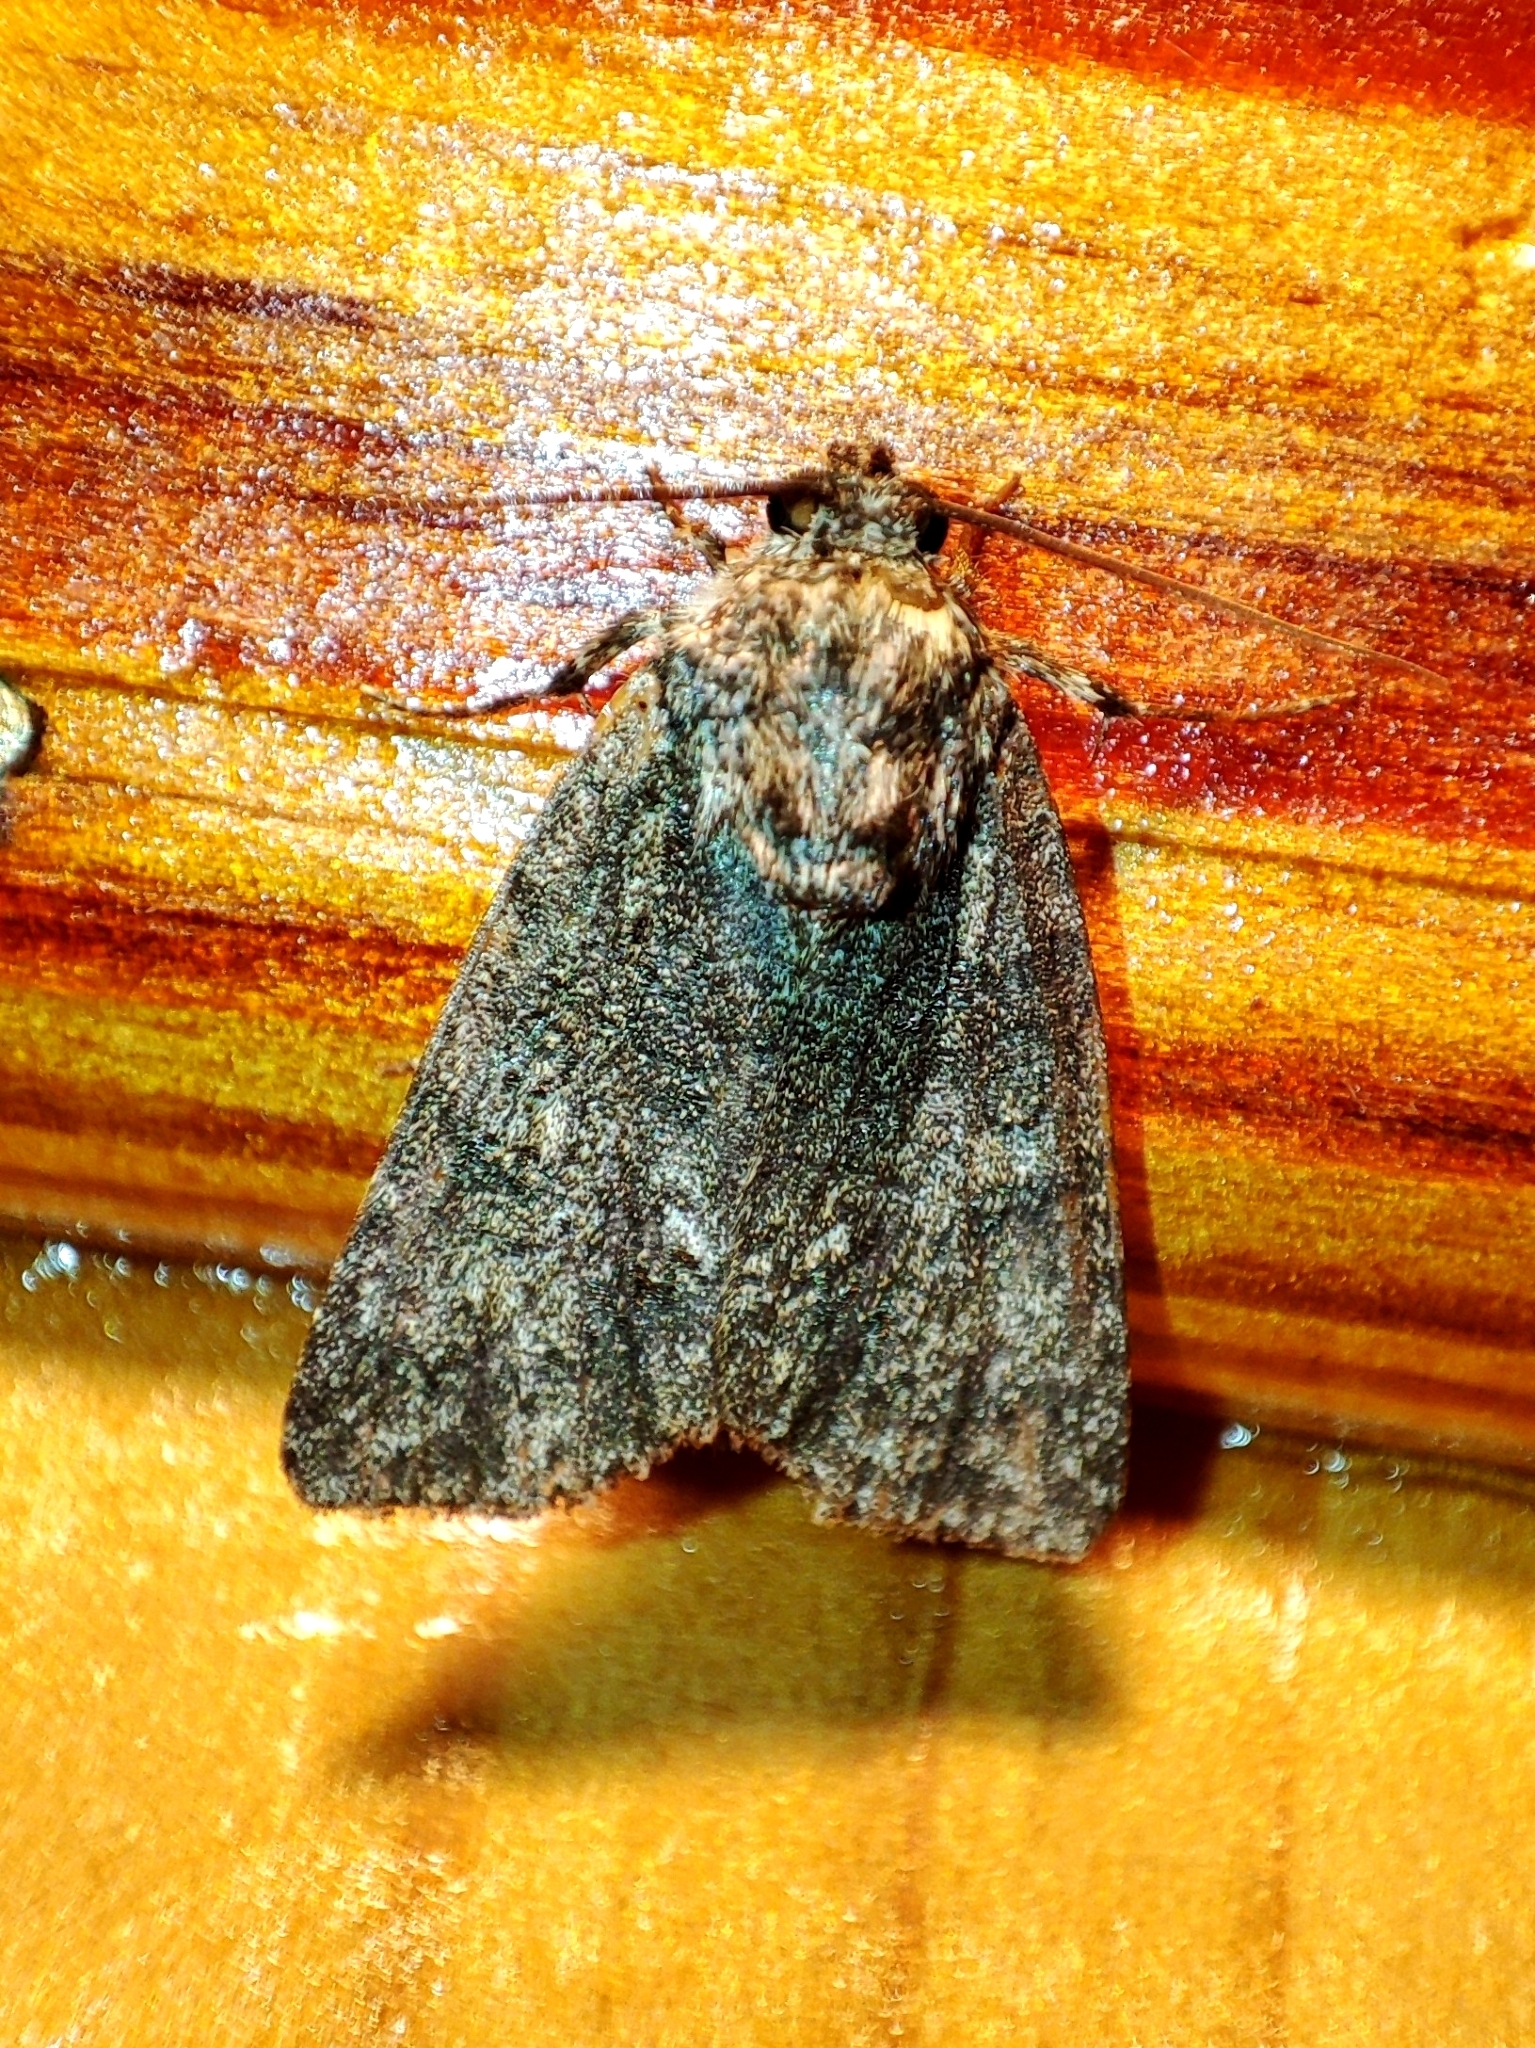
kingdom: Animalia
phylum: Arthropoda
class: Insecta
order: Lepidoptera
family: Noctuidae
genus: Acronicta
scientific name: Acronicta rumicis
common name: Knot grass
